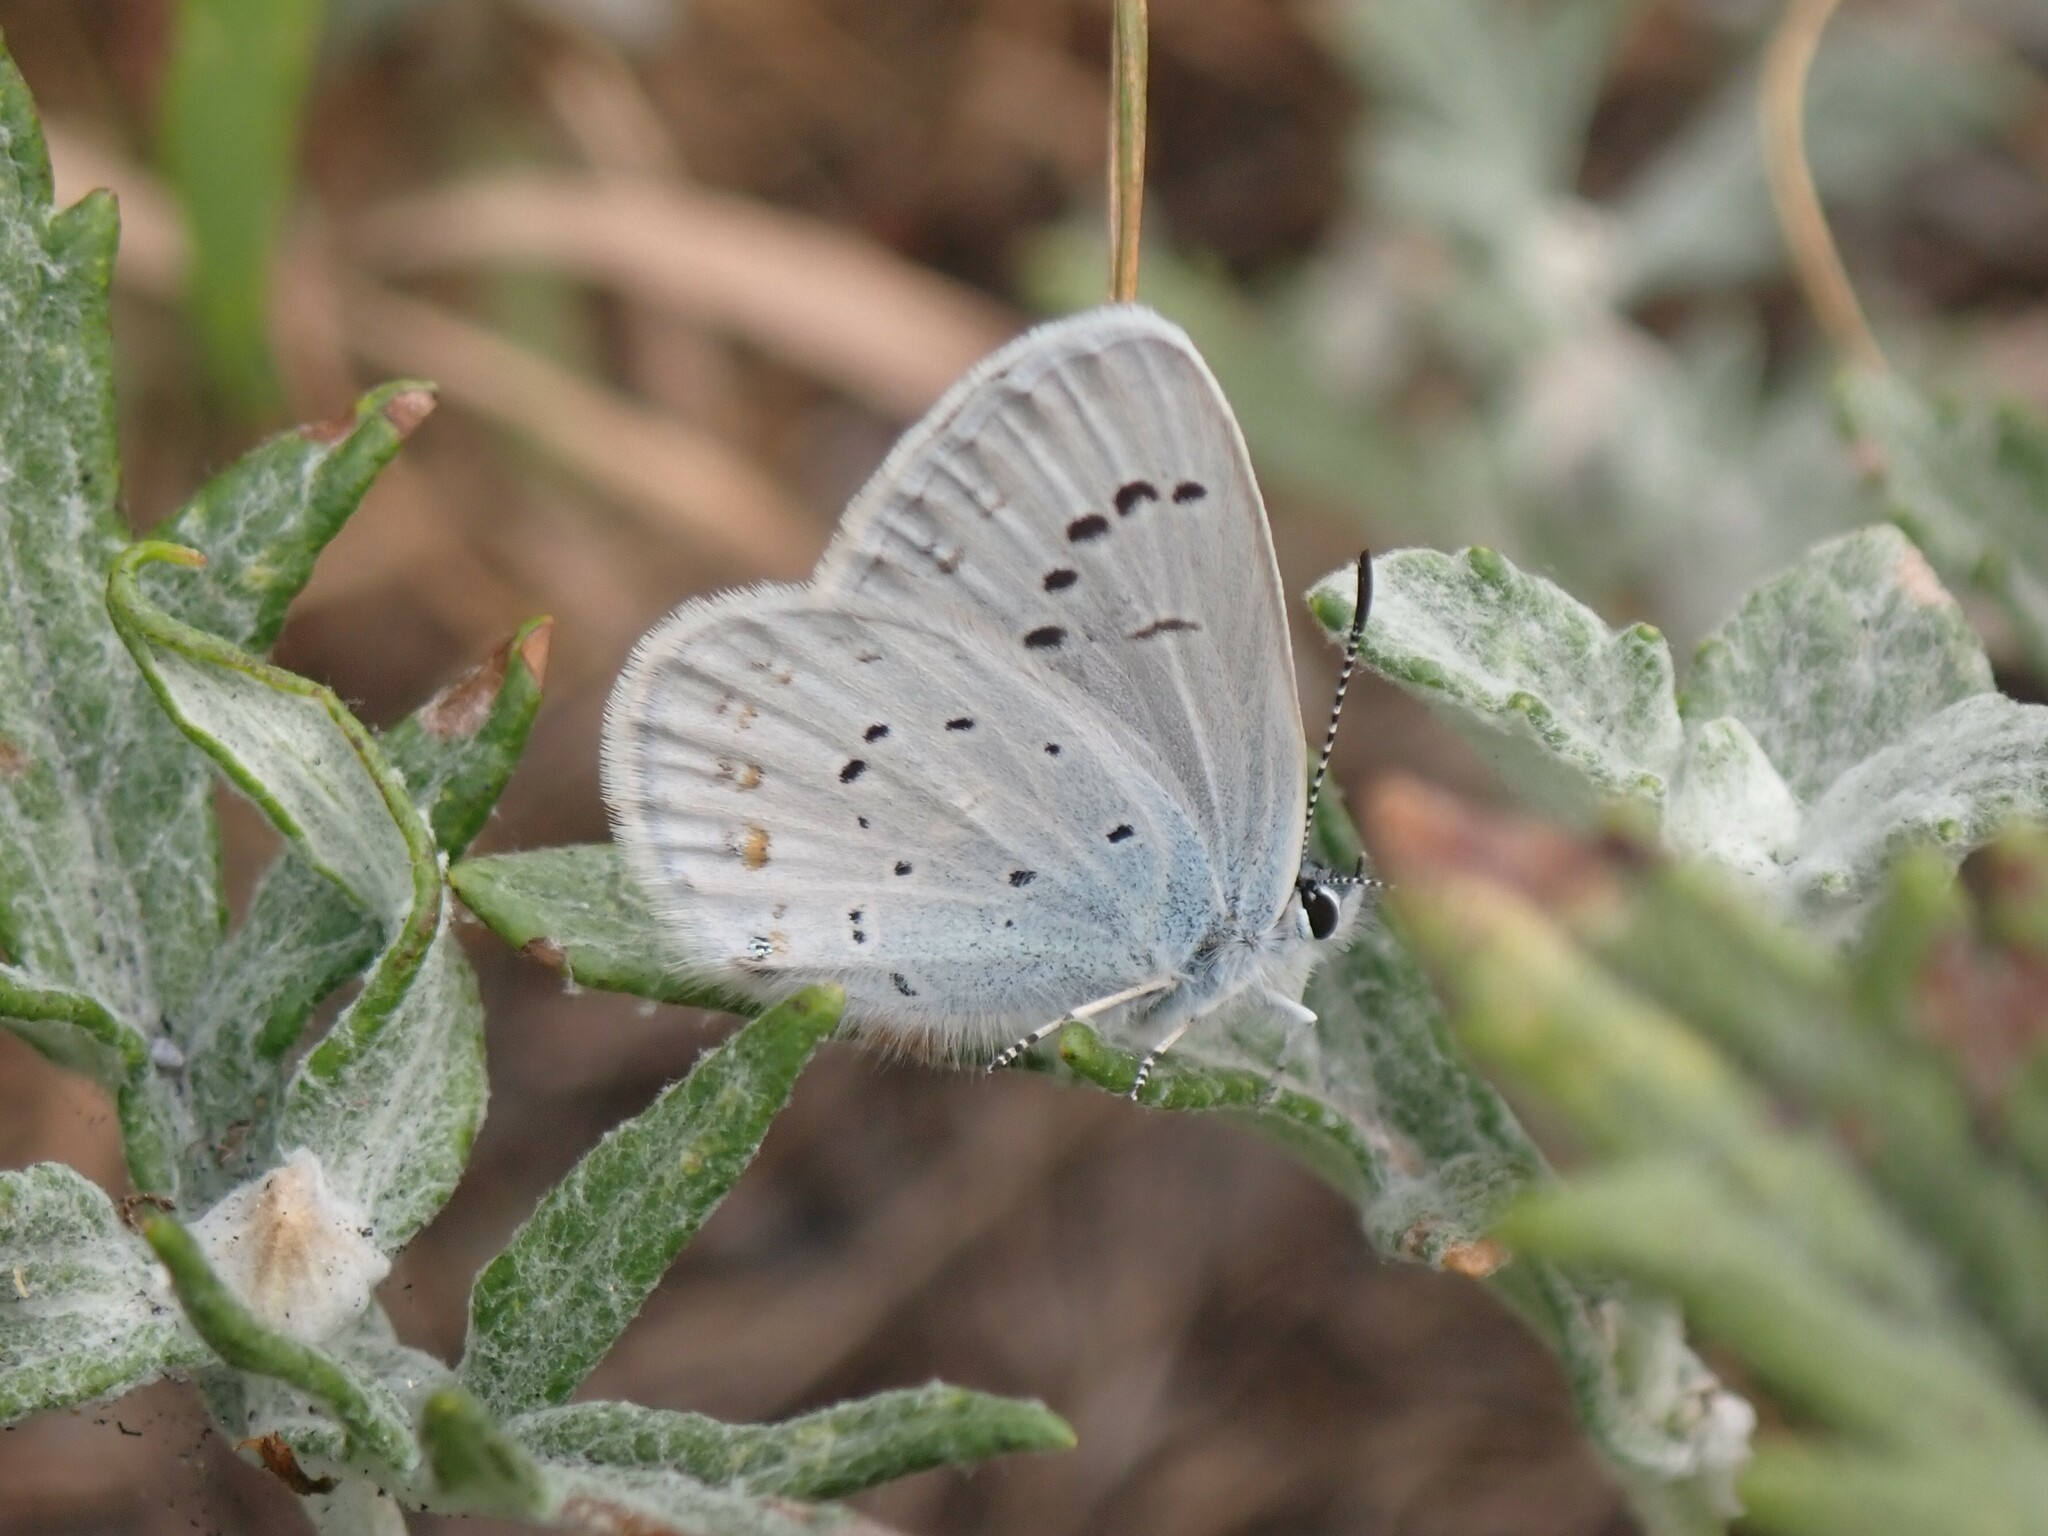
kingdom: Animalia
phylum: Arthropoda
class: Insecta
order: Lepidoptera
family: Lycaenidae
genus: Lycaeides
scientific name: Lycaeides anna
